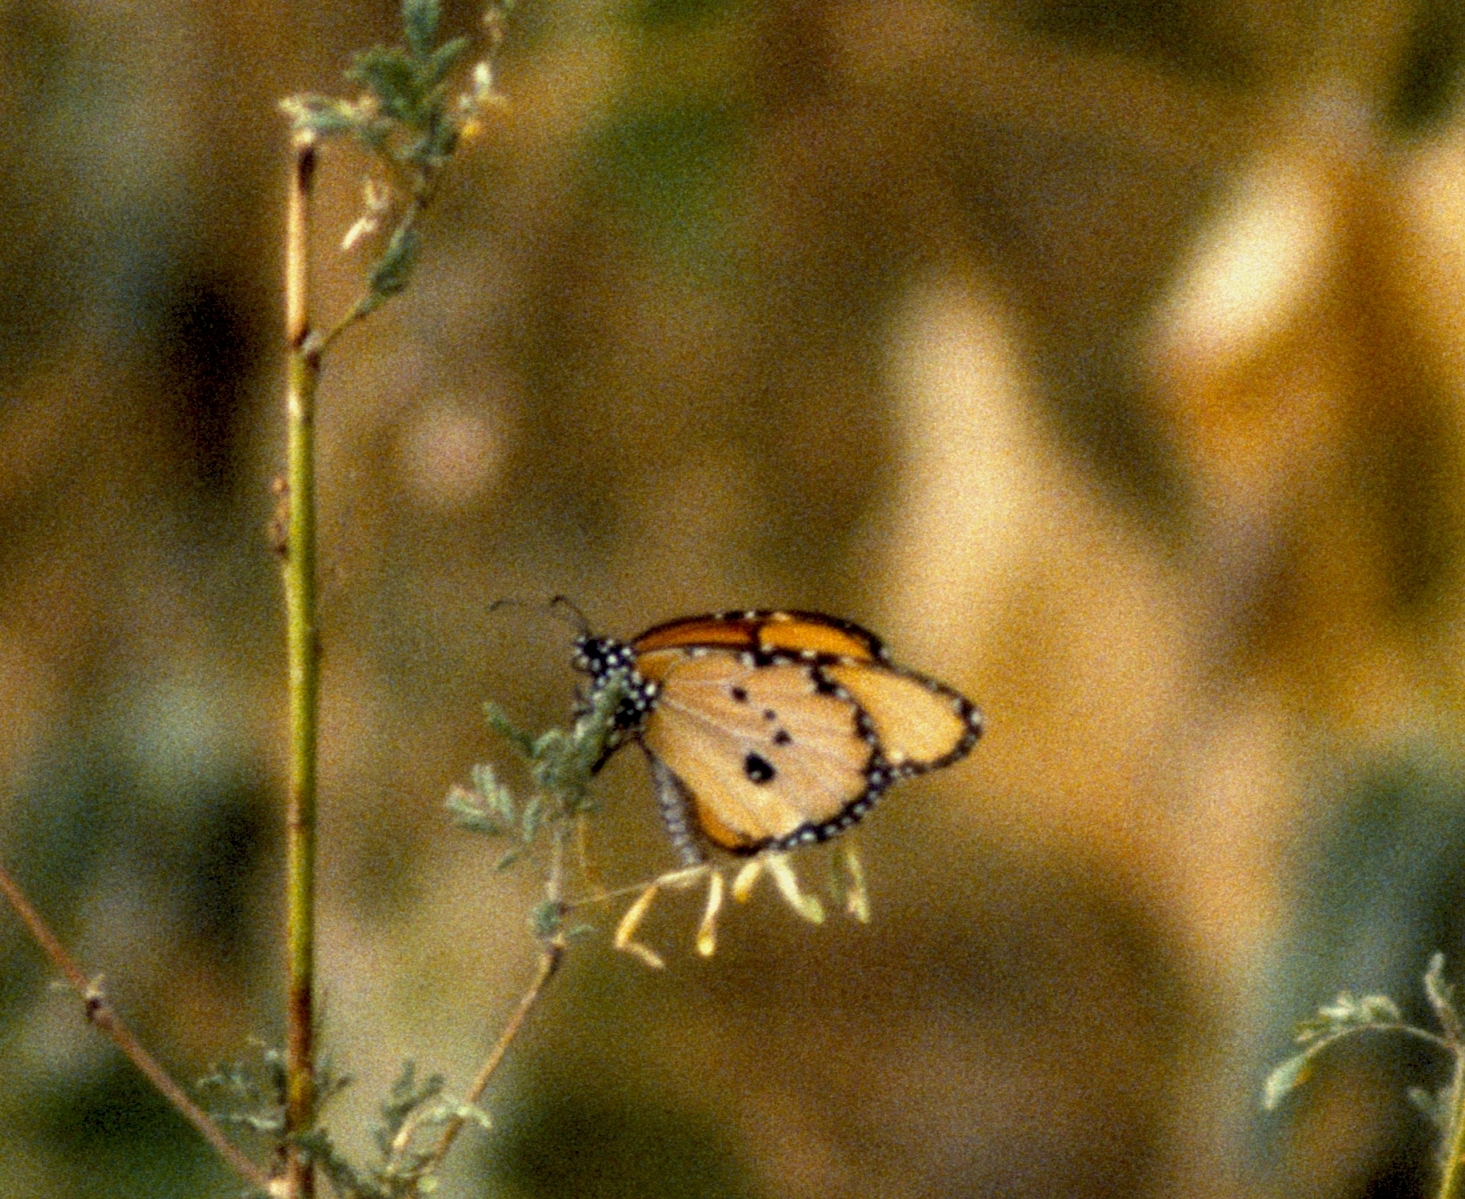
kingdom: Animalia
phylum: Arthropoda
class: Insecta
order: Lepidoptera
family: Nymphalidae
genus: Danaus
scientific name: Danaus chrysippus
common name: Plain tiger
